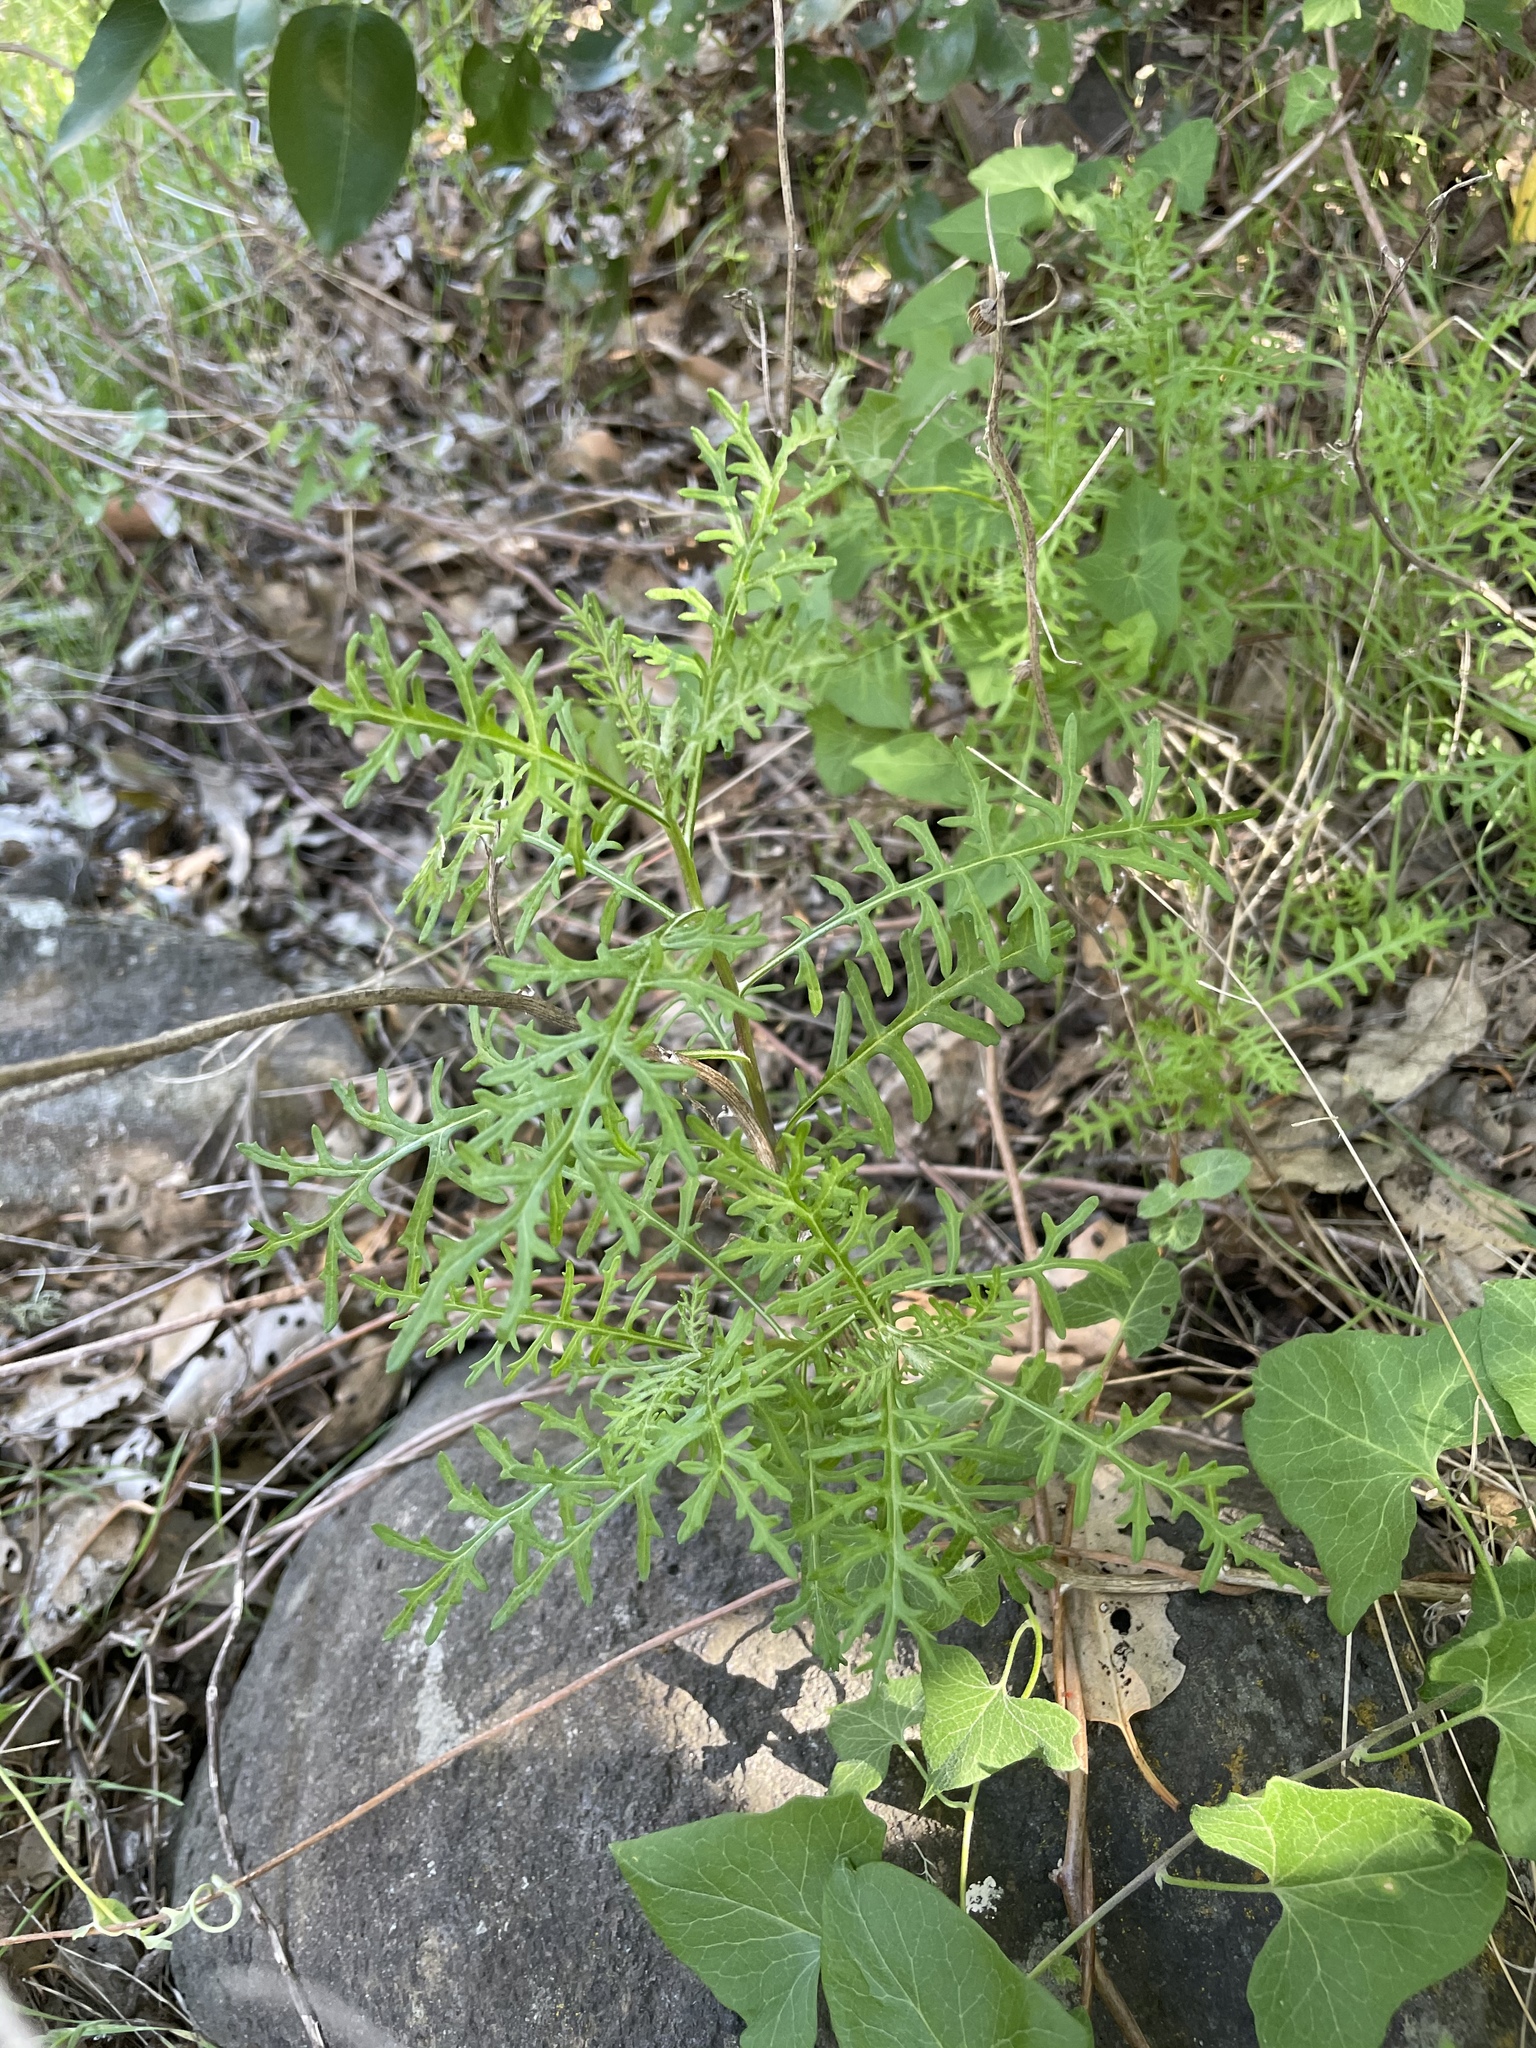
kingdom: Plantae
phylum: Tracheophyta
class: Magnoliopsida
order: Asterales
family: Asteraceae
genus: Senecio
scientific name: Senecio lyonii
